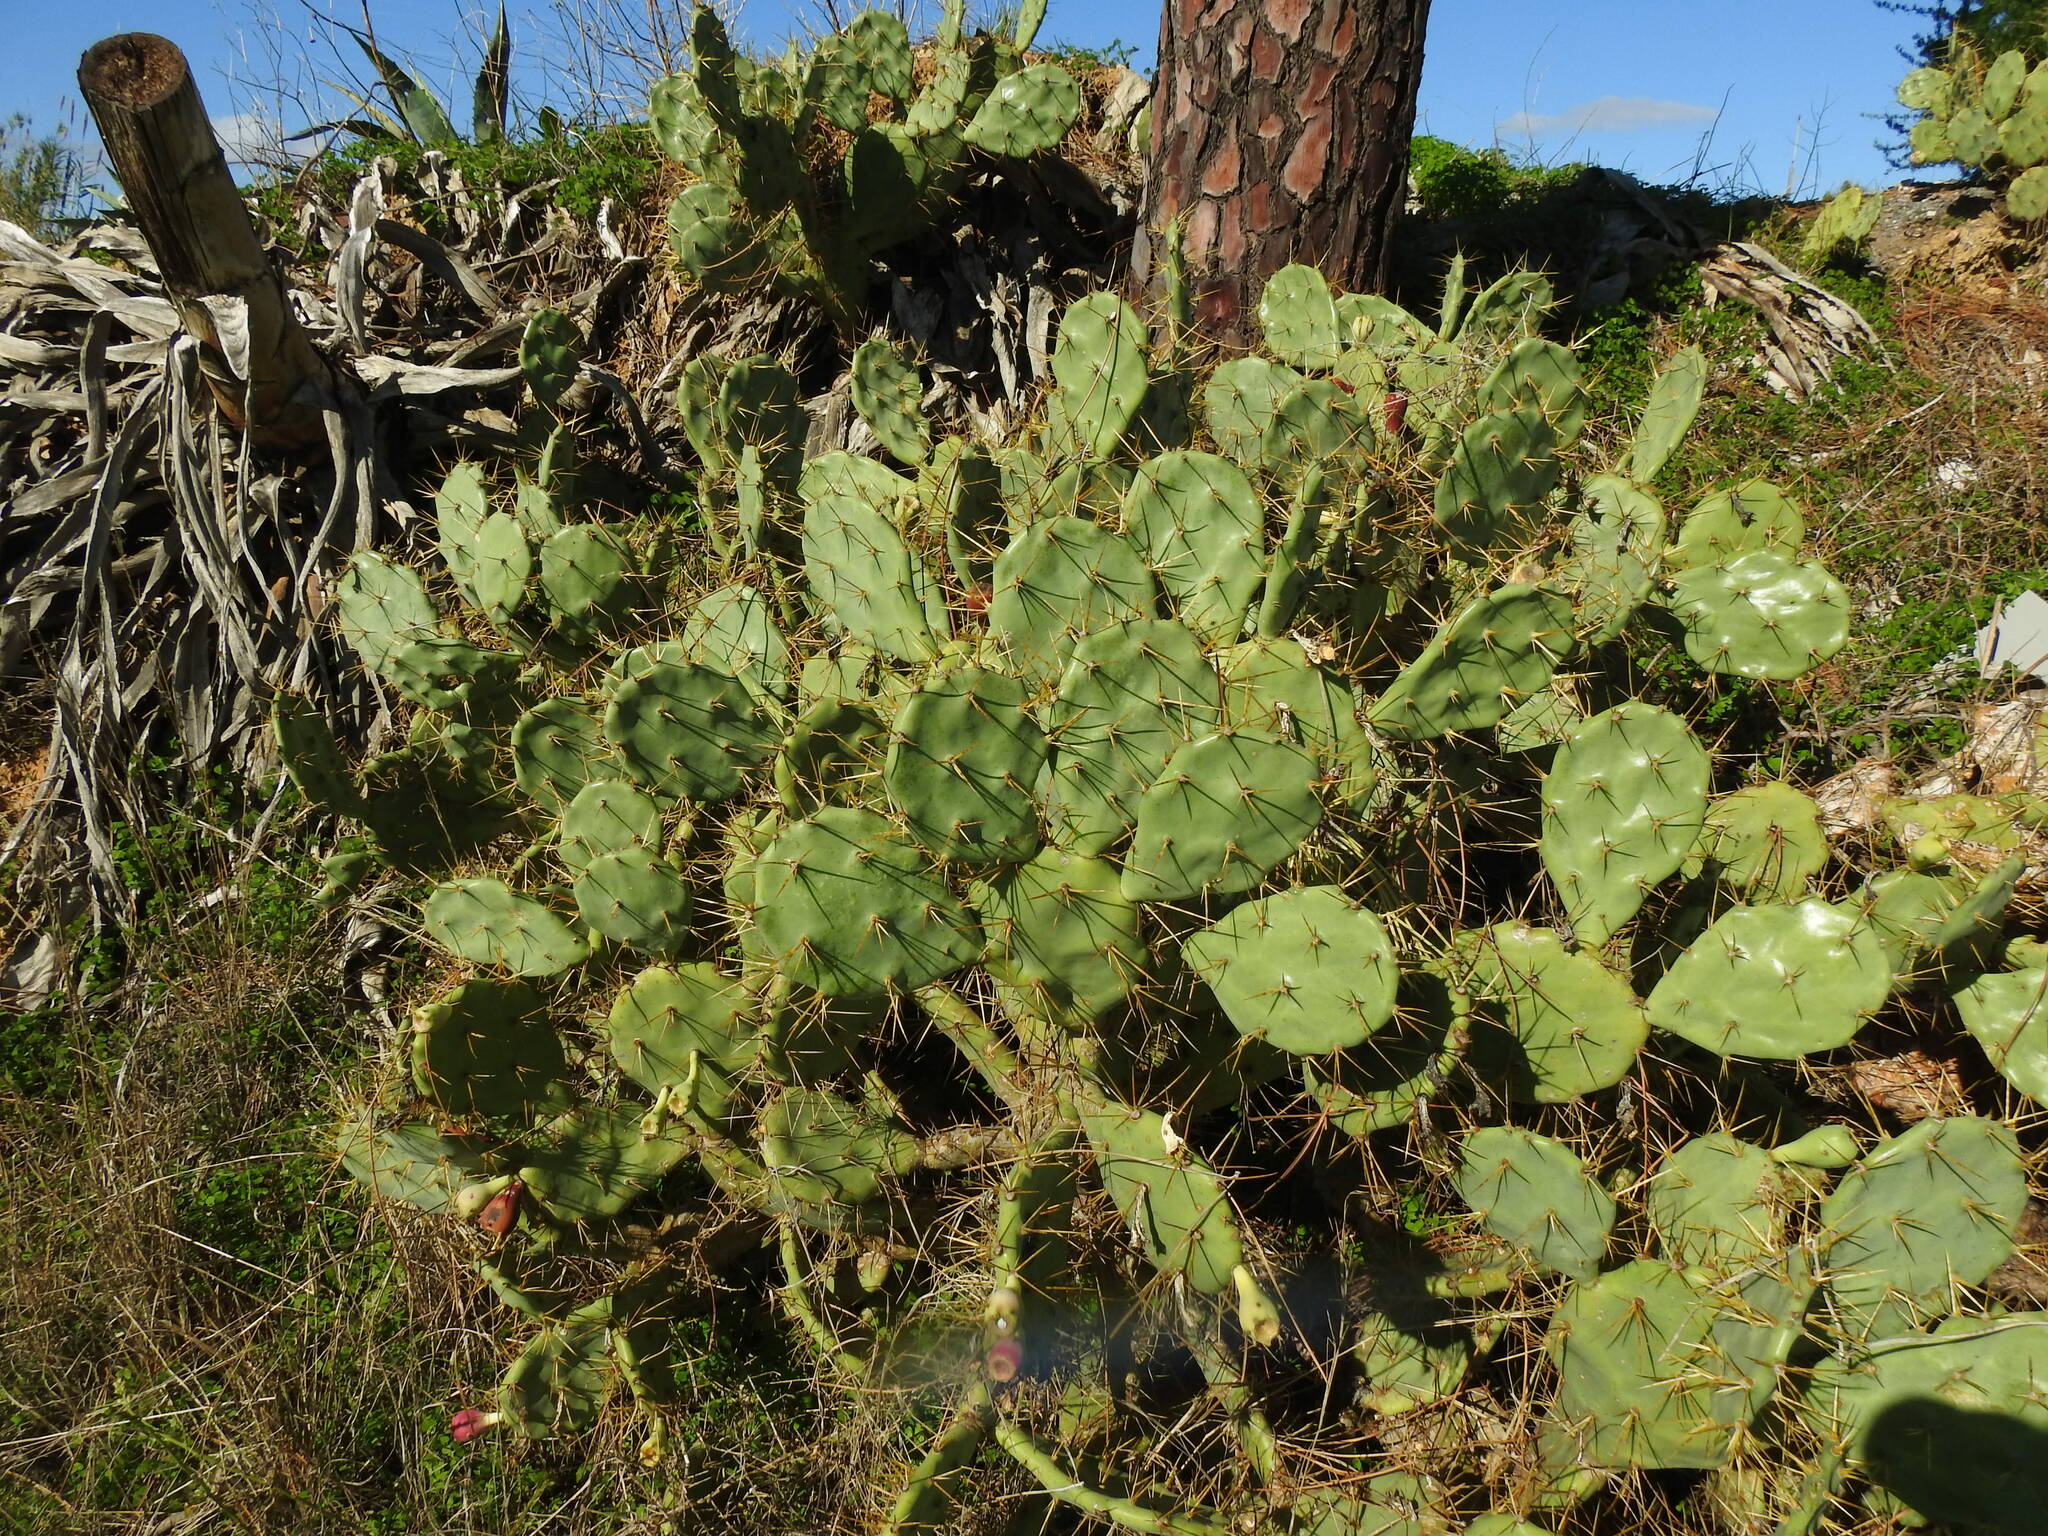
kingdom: Plantae
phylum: Tracheophyta
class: Magnoliopsida
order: Caryophyllales
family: Cactaceae
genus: Opuntia
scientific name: Opuntia stricta
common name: Erect pricklypear
